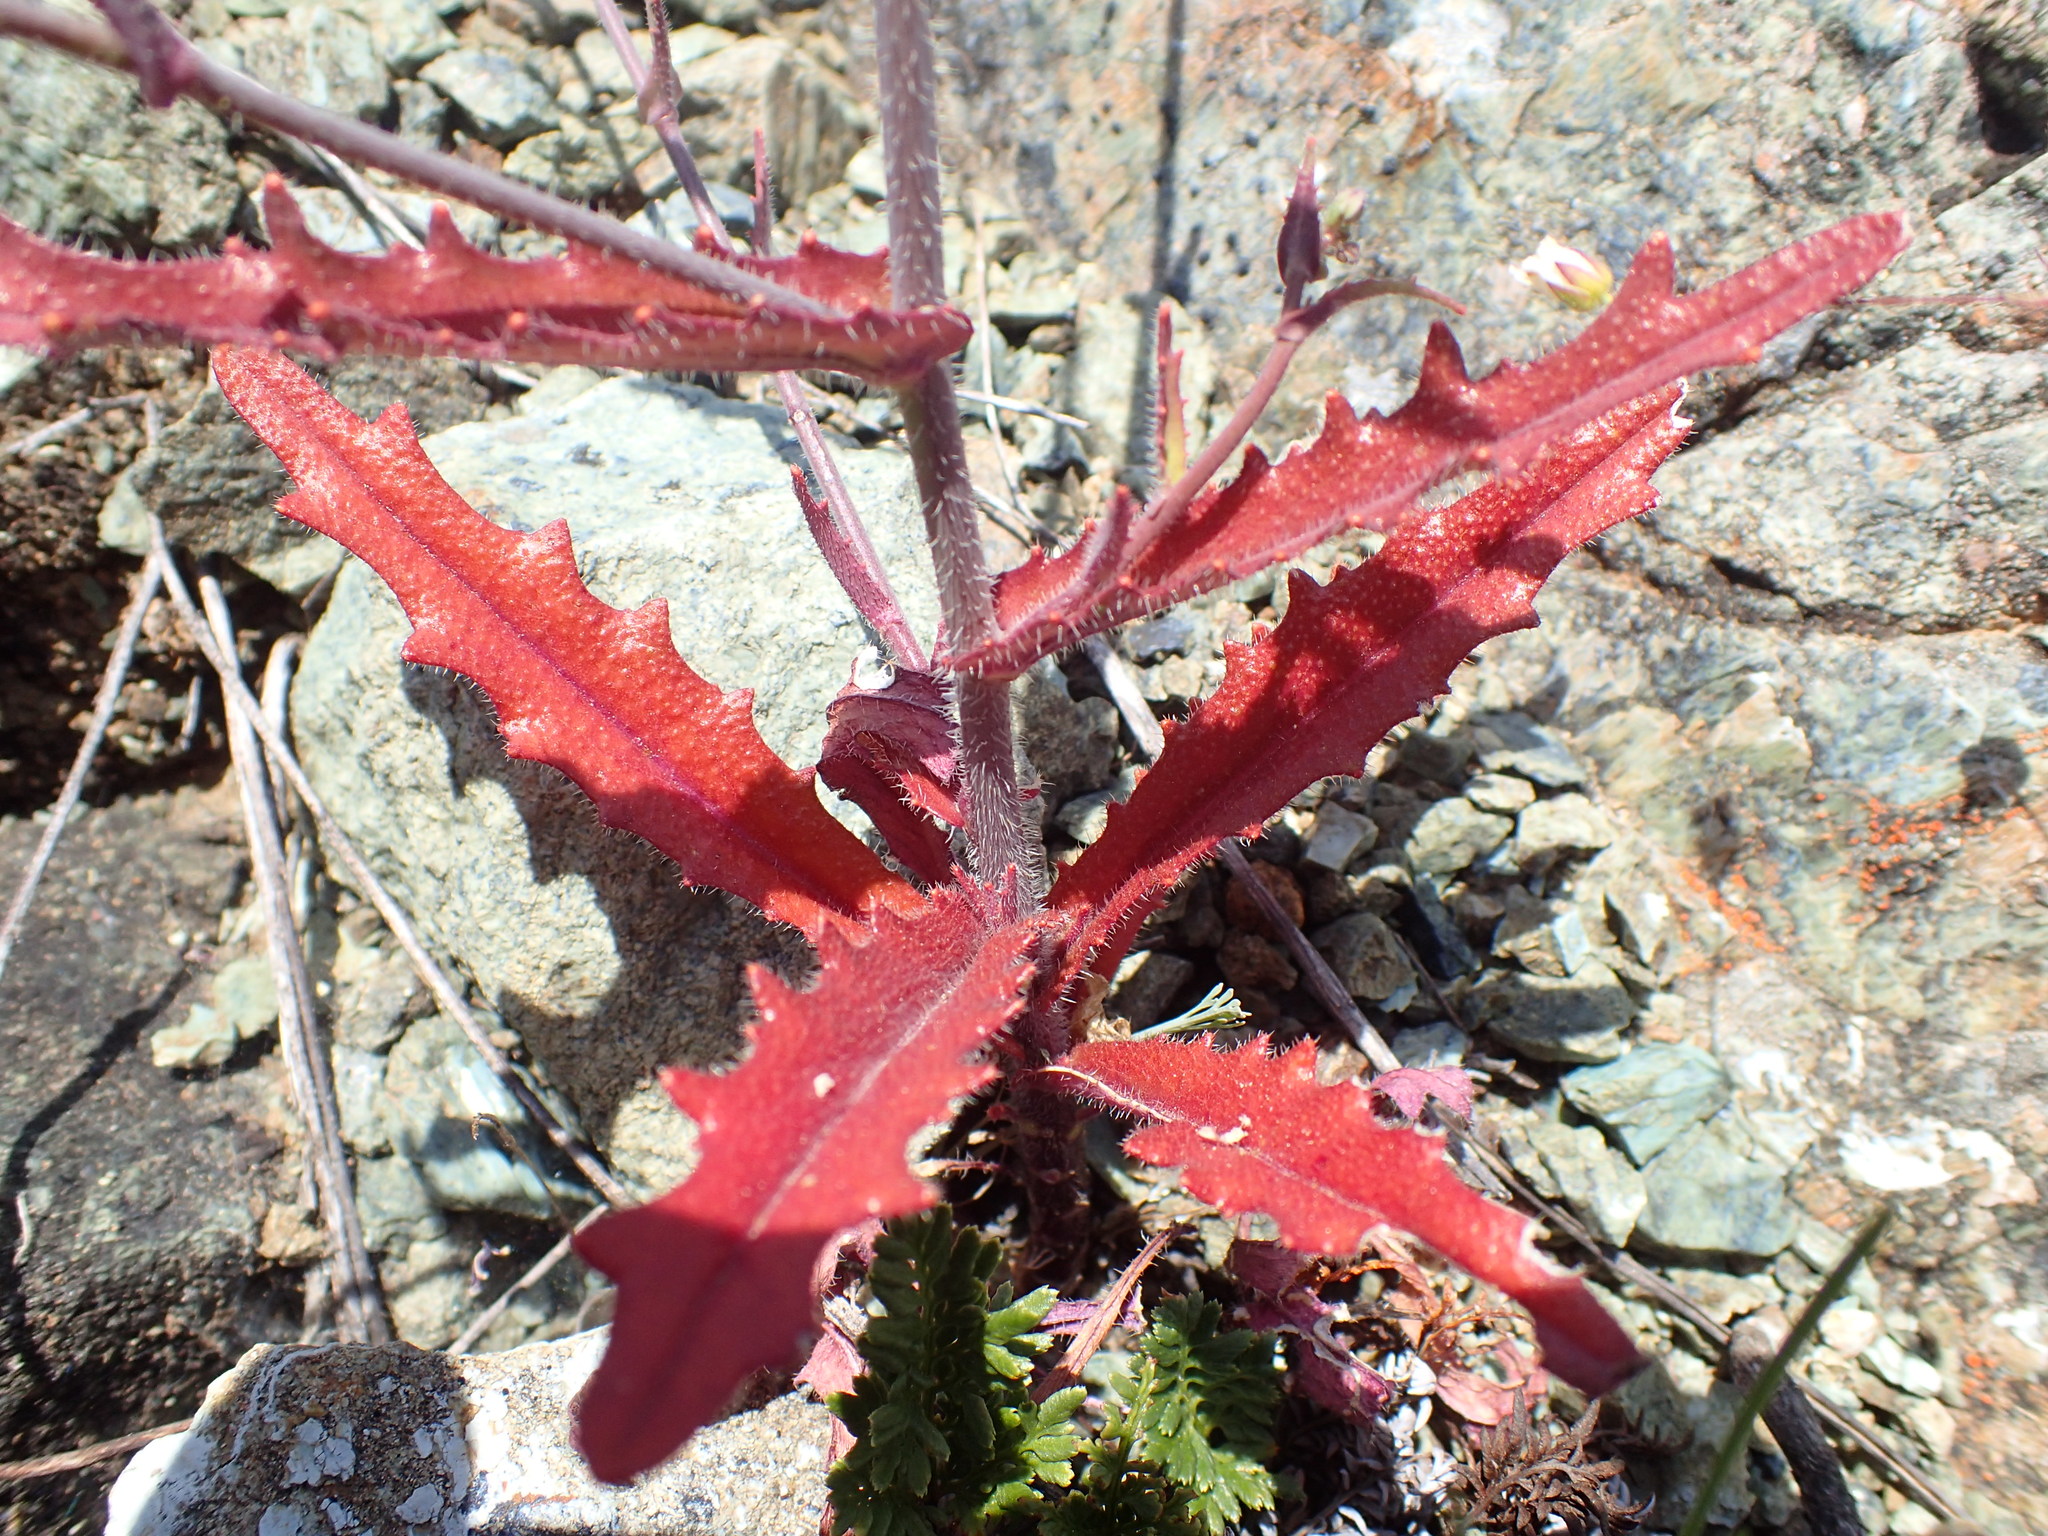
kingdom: Plantae
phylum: Tracheophyta
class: Magnoliopsida
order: Brassicales
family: Brassicaceae
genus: Streptanthus
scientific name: Streptanthus glandulosus
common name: Jewel-flower
